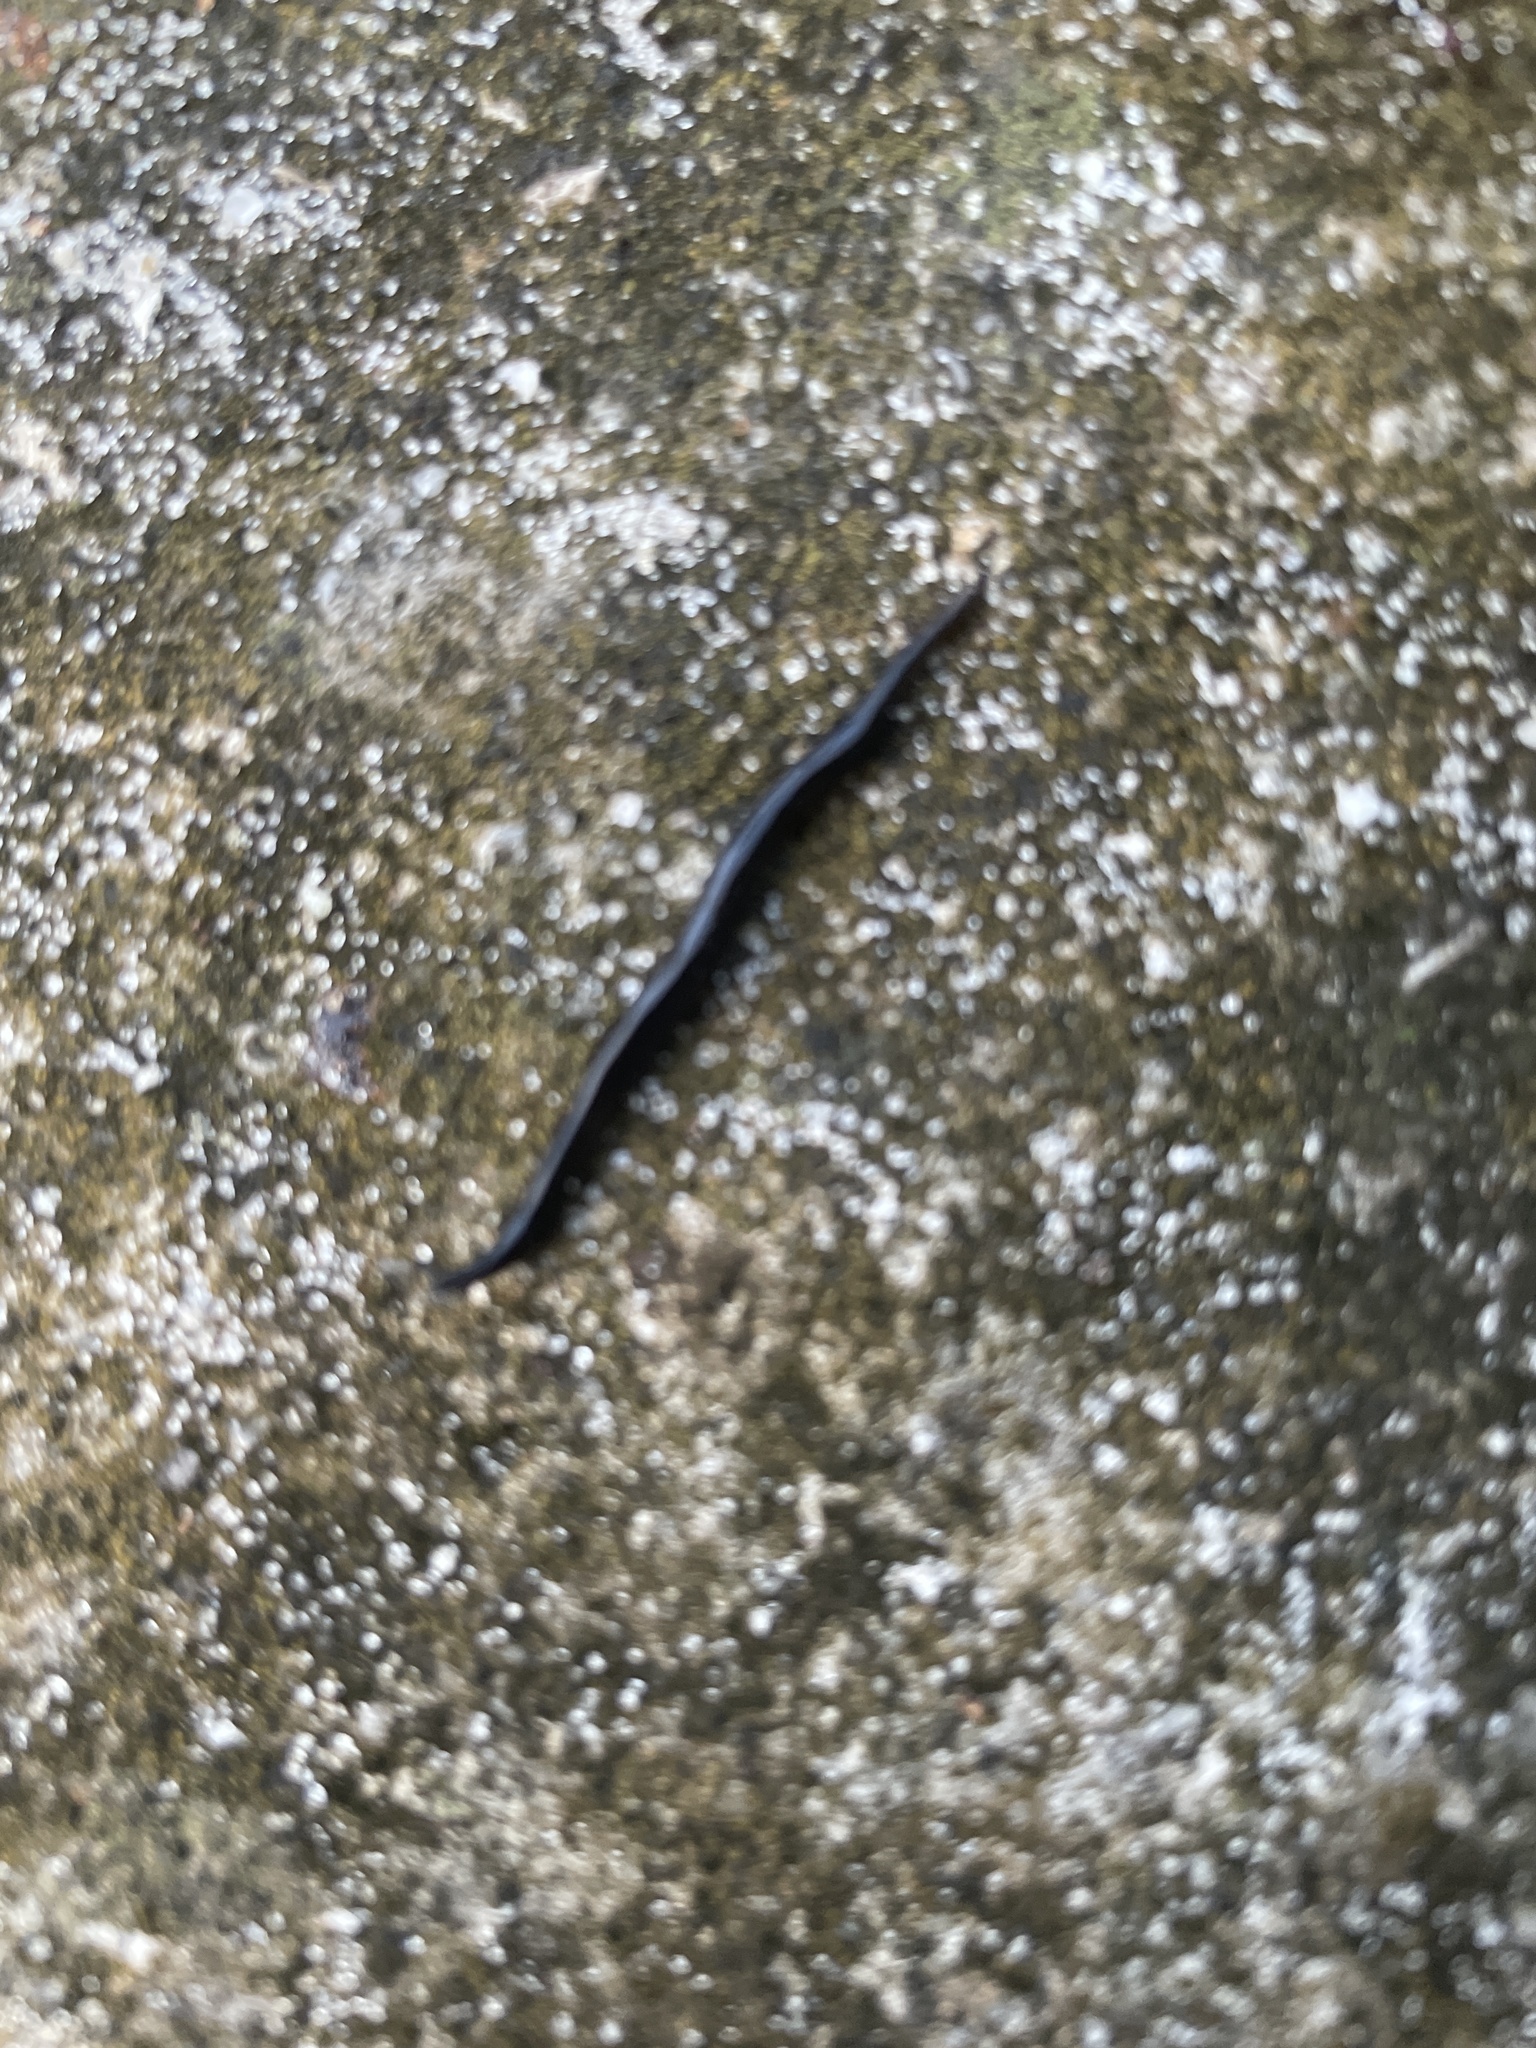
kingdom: Animalia
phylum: Platyhelminthes
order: Tricladida
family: Geoplanidae
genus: Platydemus
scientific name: Platydemus manokwari
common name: New guinea flatworm
